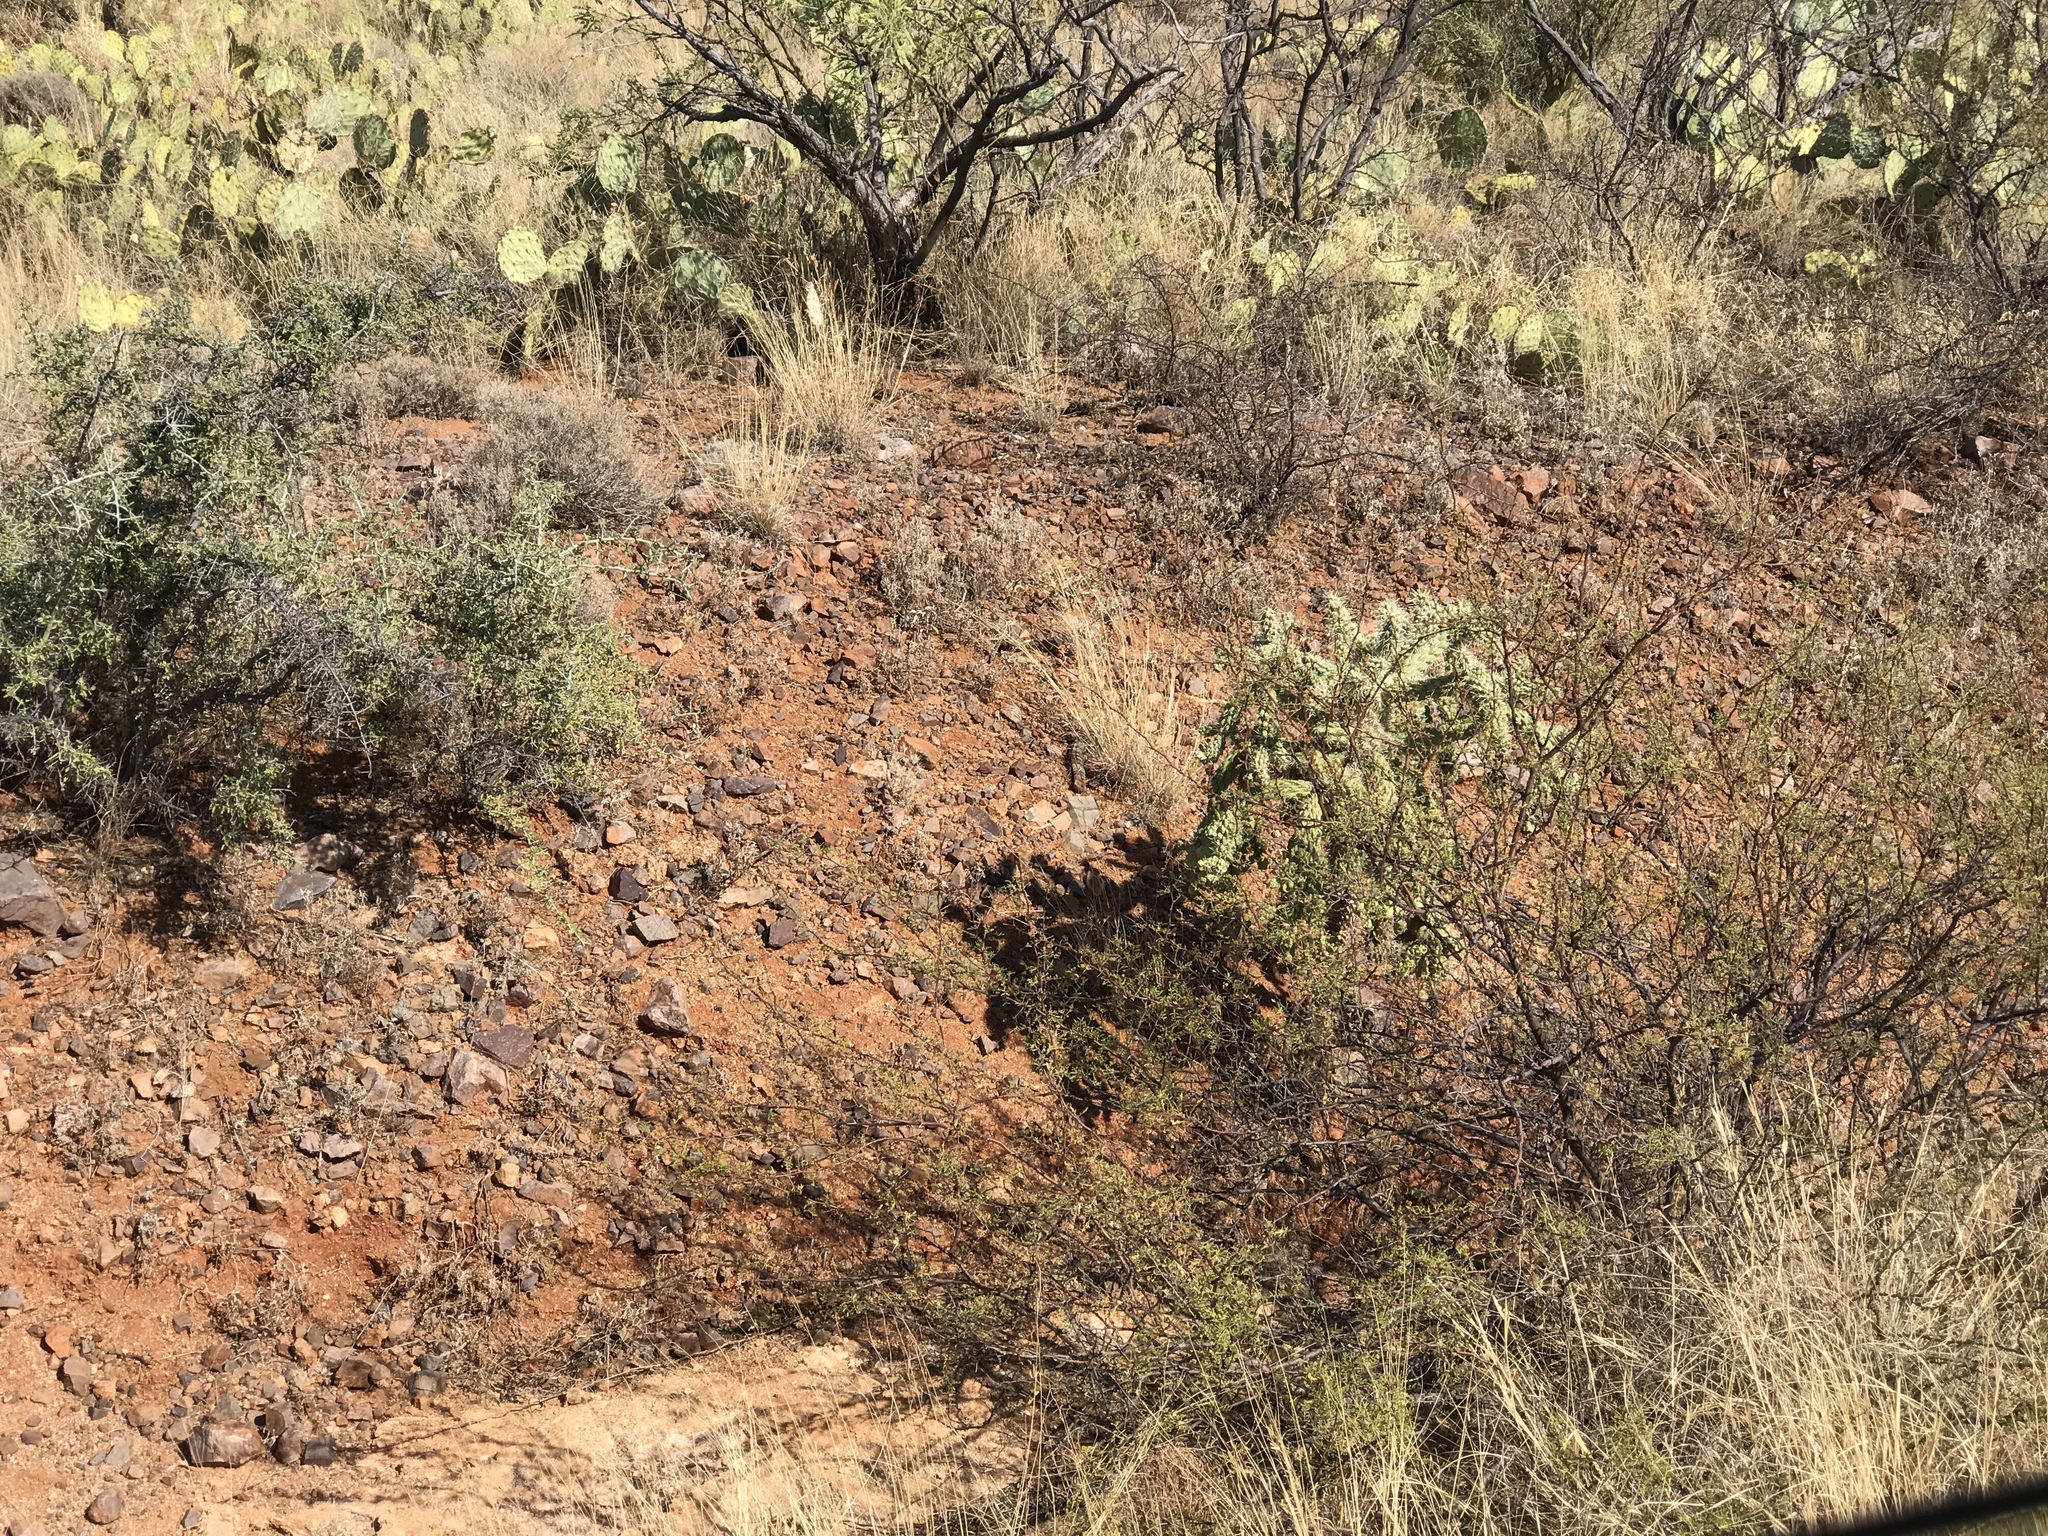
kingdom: Plantae
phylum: Tracheophyta
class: Magnoliopsida
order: Caryophyllales
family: Cactaceae
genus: Cylindropuntia
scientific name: Cylindropuntia fulgida
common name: Jumping cholla
